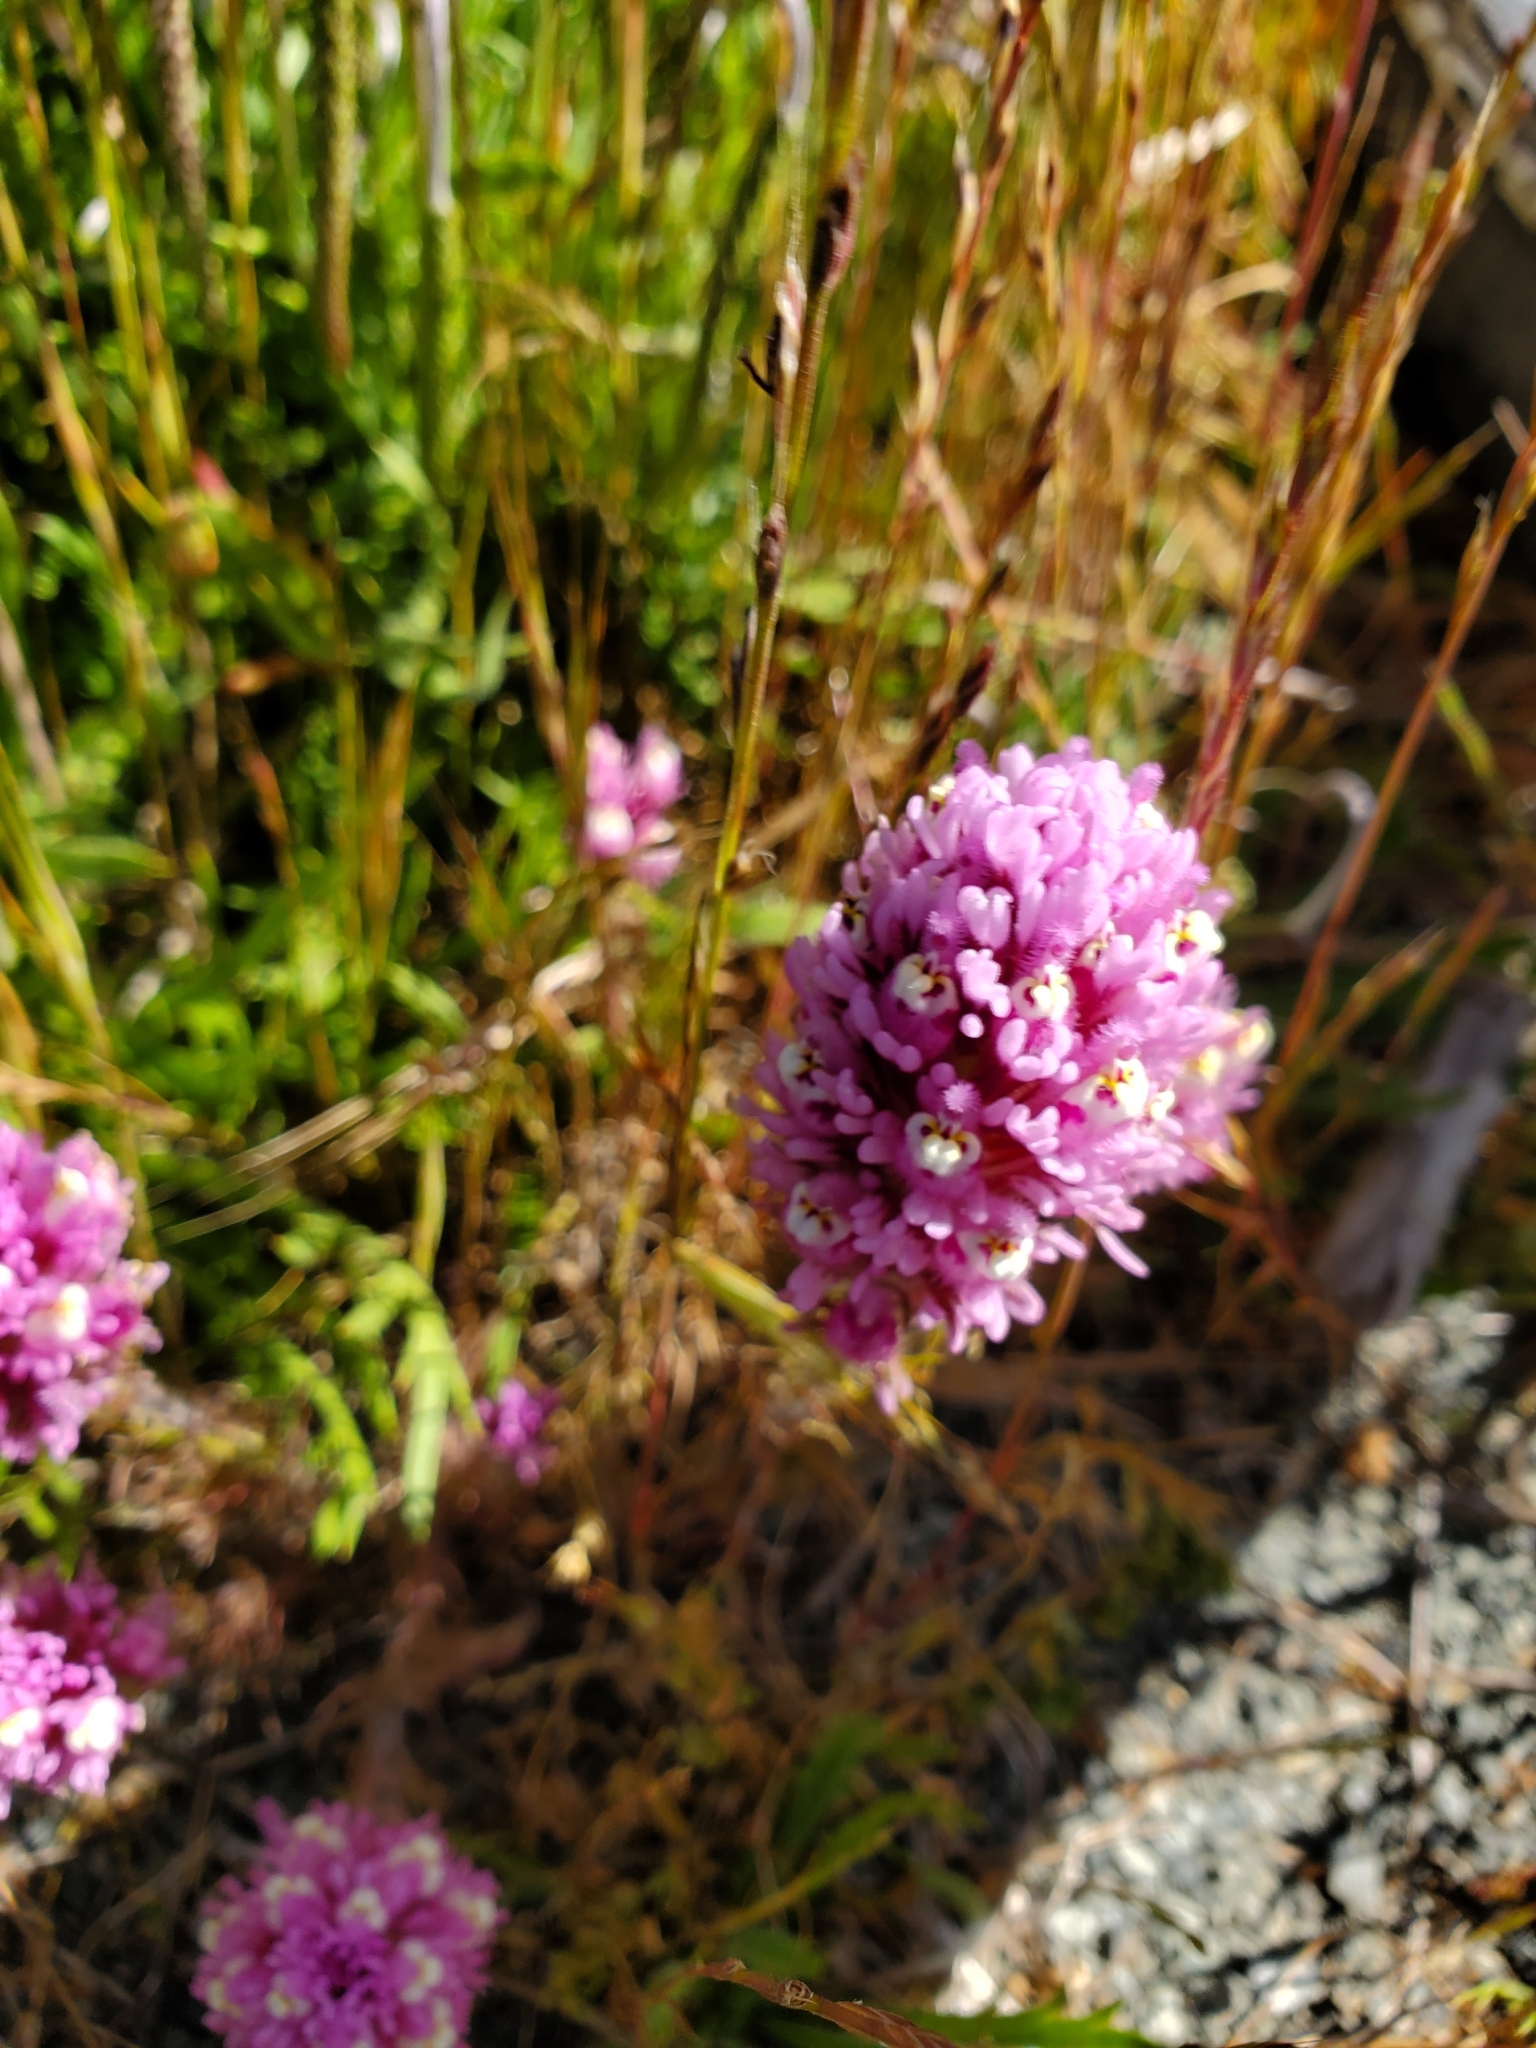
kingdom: Plantae
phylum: Tracheophyta
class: Magnoliopsida
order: Lamiales
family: Orobanchaceae
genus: Castilleja
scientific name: Castilleja exserta
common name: Purple owl-clover
